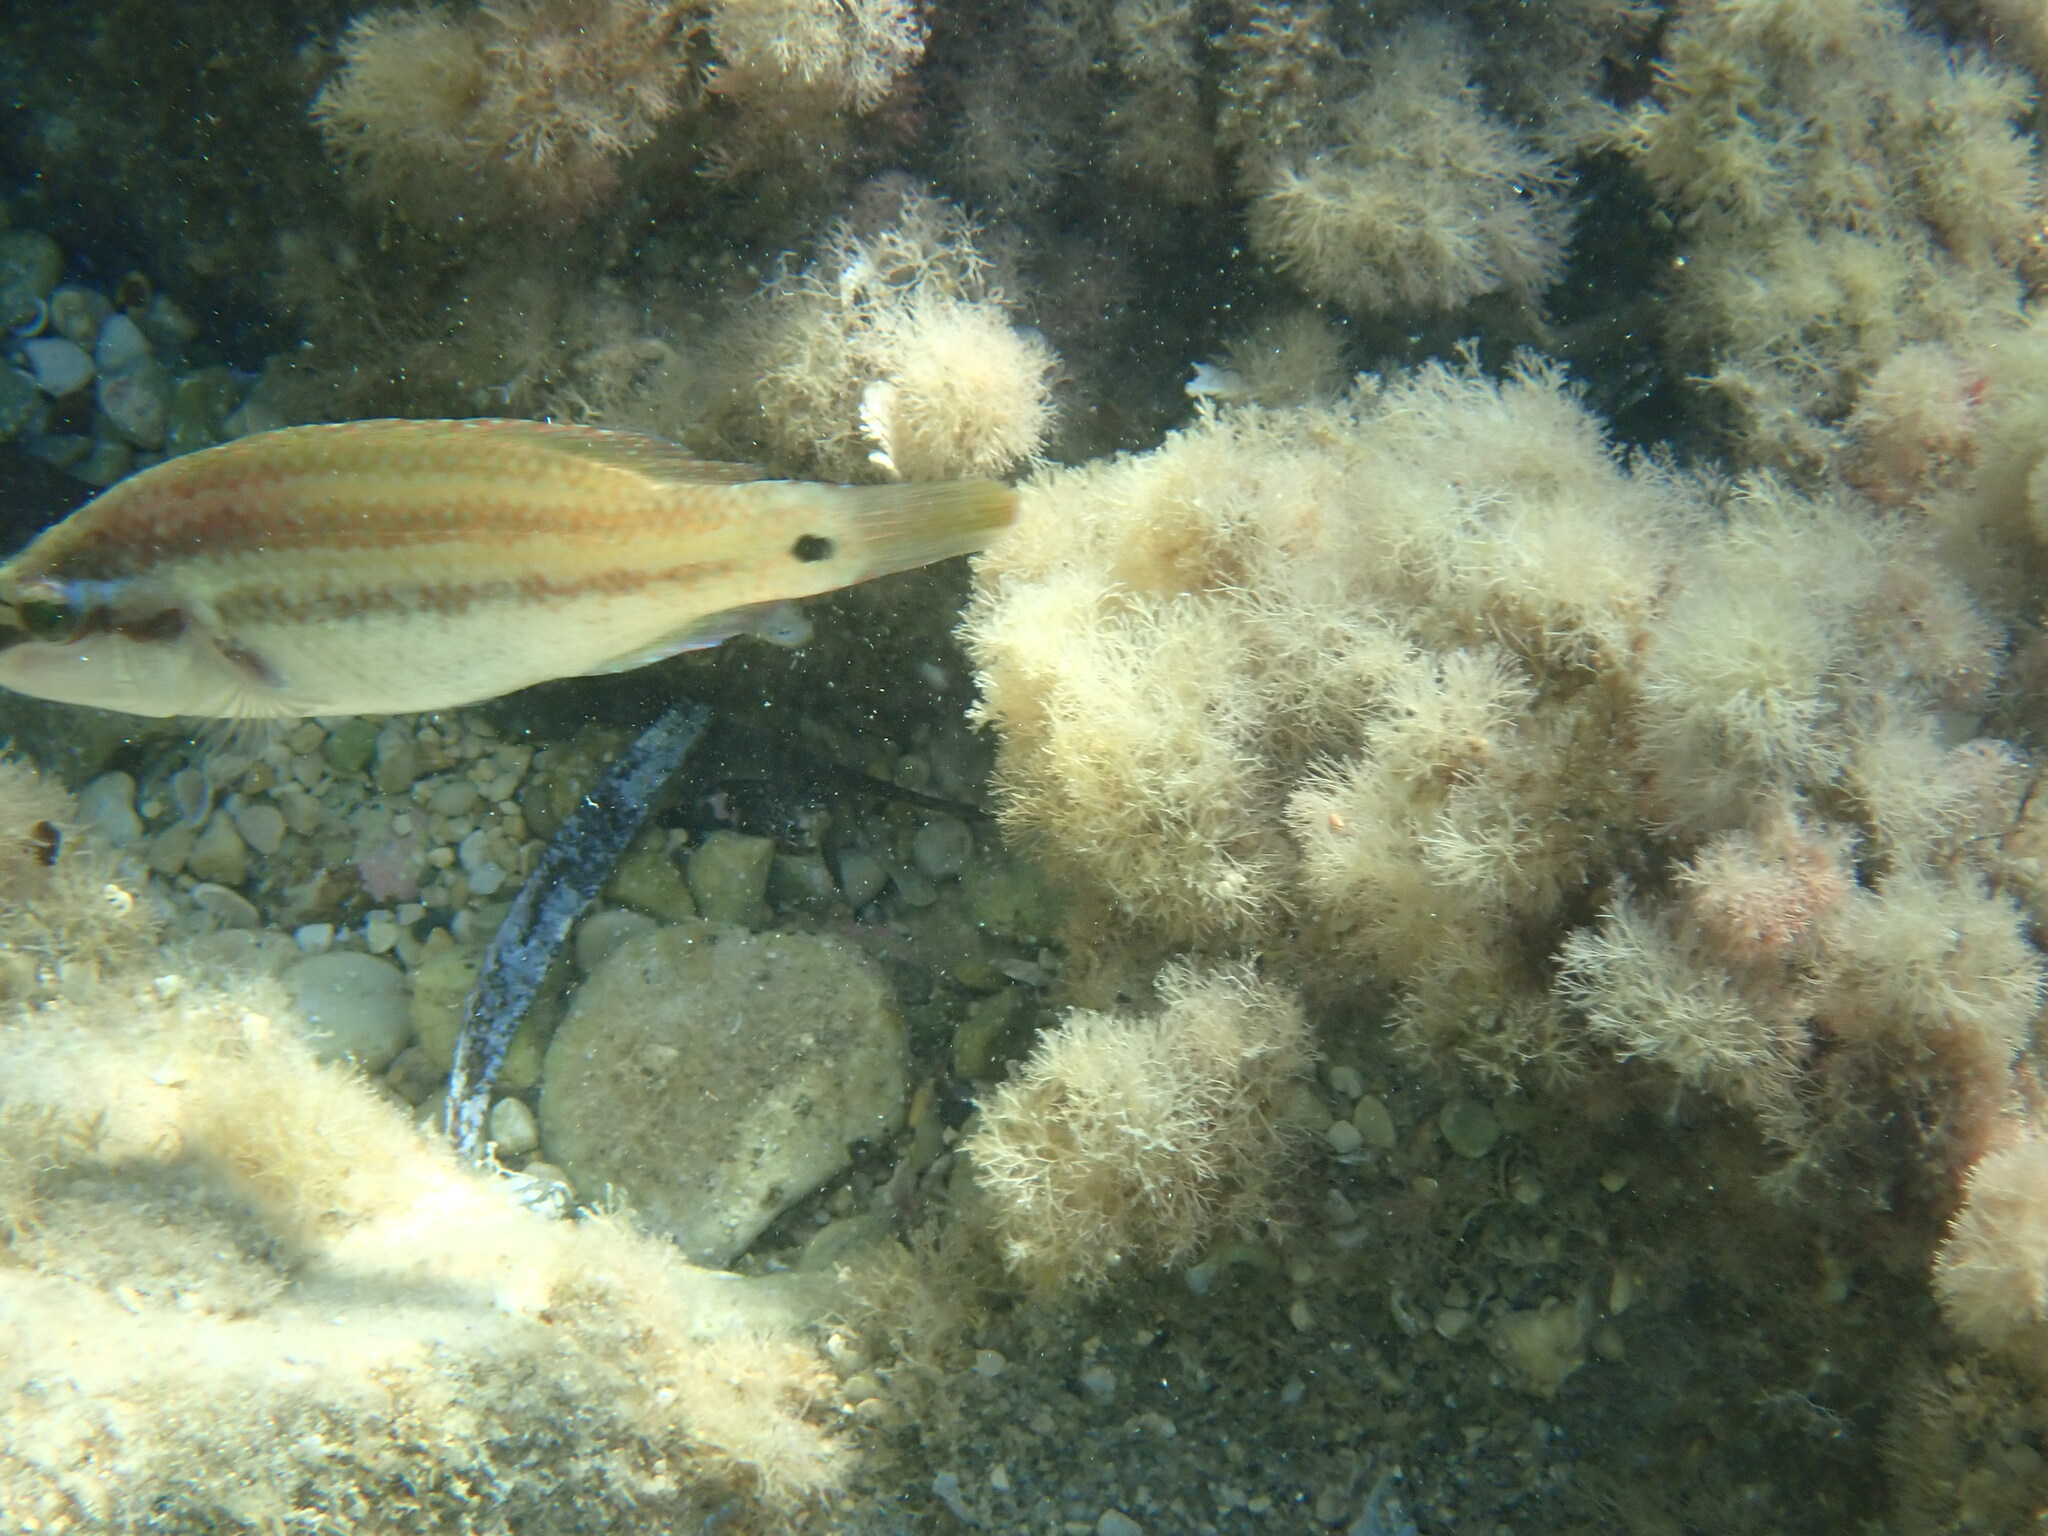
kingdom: Animalia
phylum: Chordata
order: Perciformes
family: Labridae
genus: Symphodus
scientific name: Symphodus tinca
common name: Peacock wrasse
